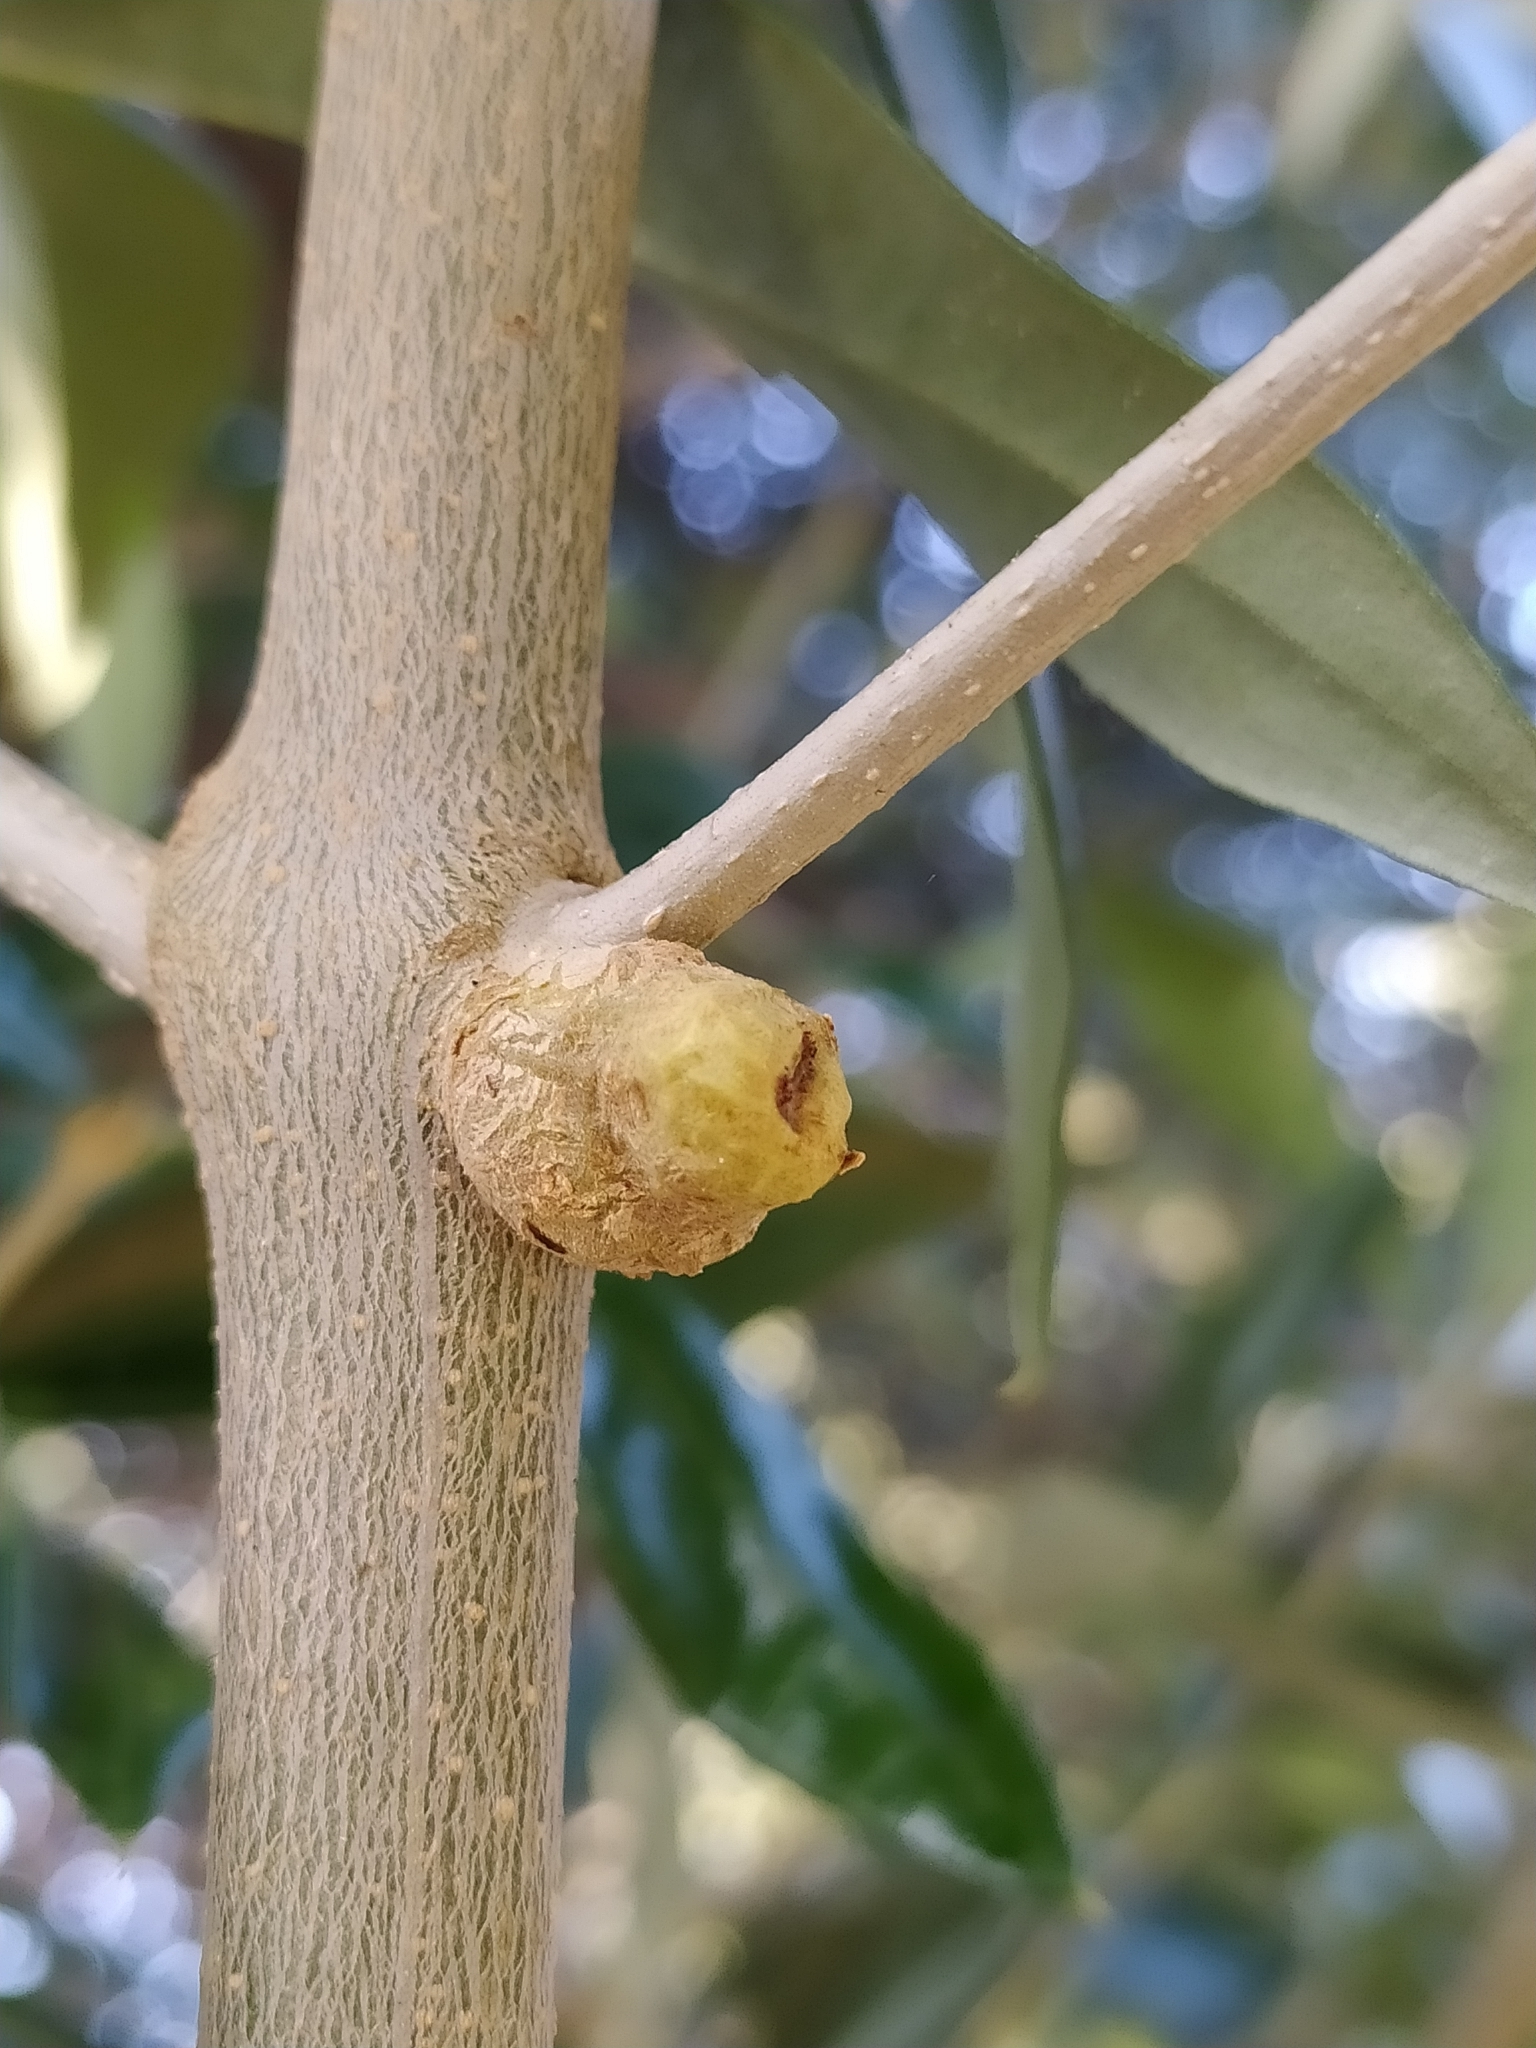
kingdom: Bacteria
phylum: Proteobacteria
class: Gammaproteobacteria
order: Pseudomonadales
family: Pseudomonadaceae
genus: Pseudomonas
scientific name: Pseudomonas
